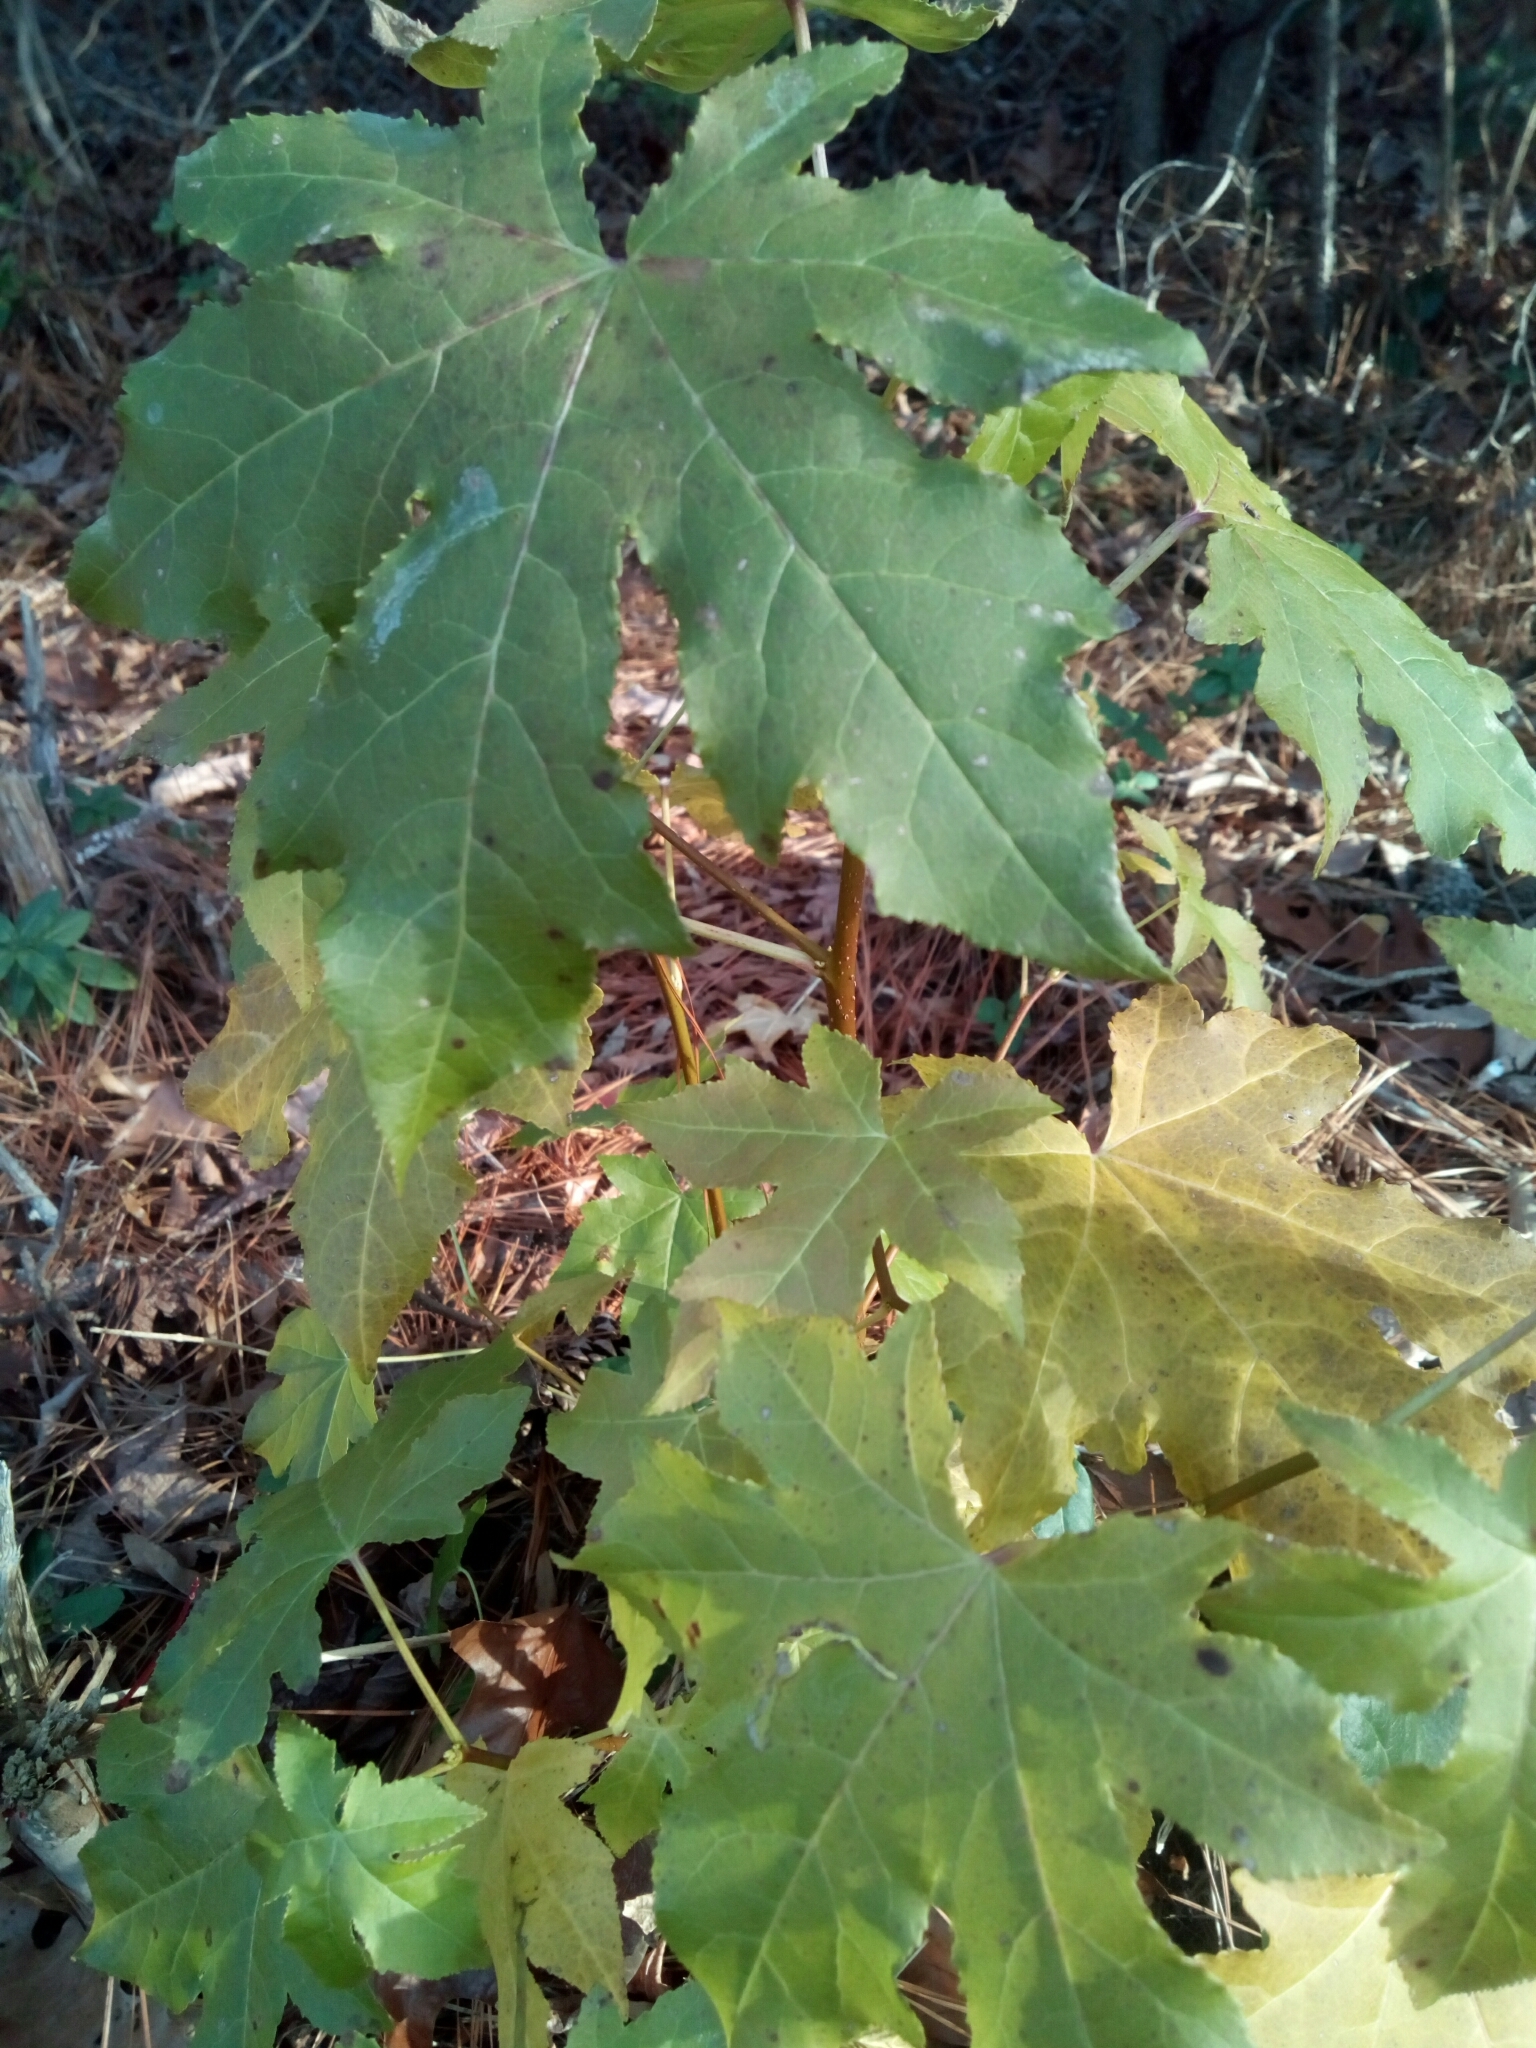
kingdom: Plantae
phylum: Tracheophyta
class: Magnoliopsida
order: Saxifragales
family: Altingiaceae
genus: Liquidambar
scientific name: Liquidambar styraciflua
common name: Sweet gum
